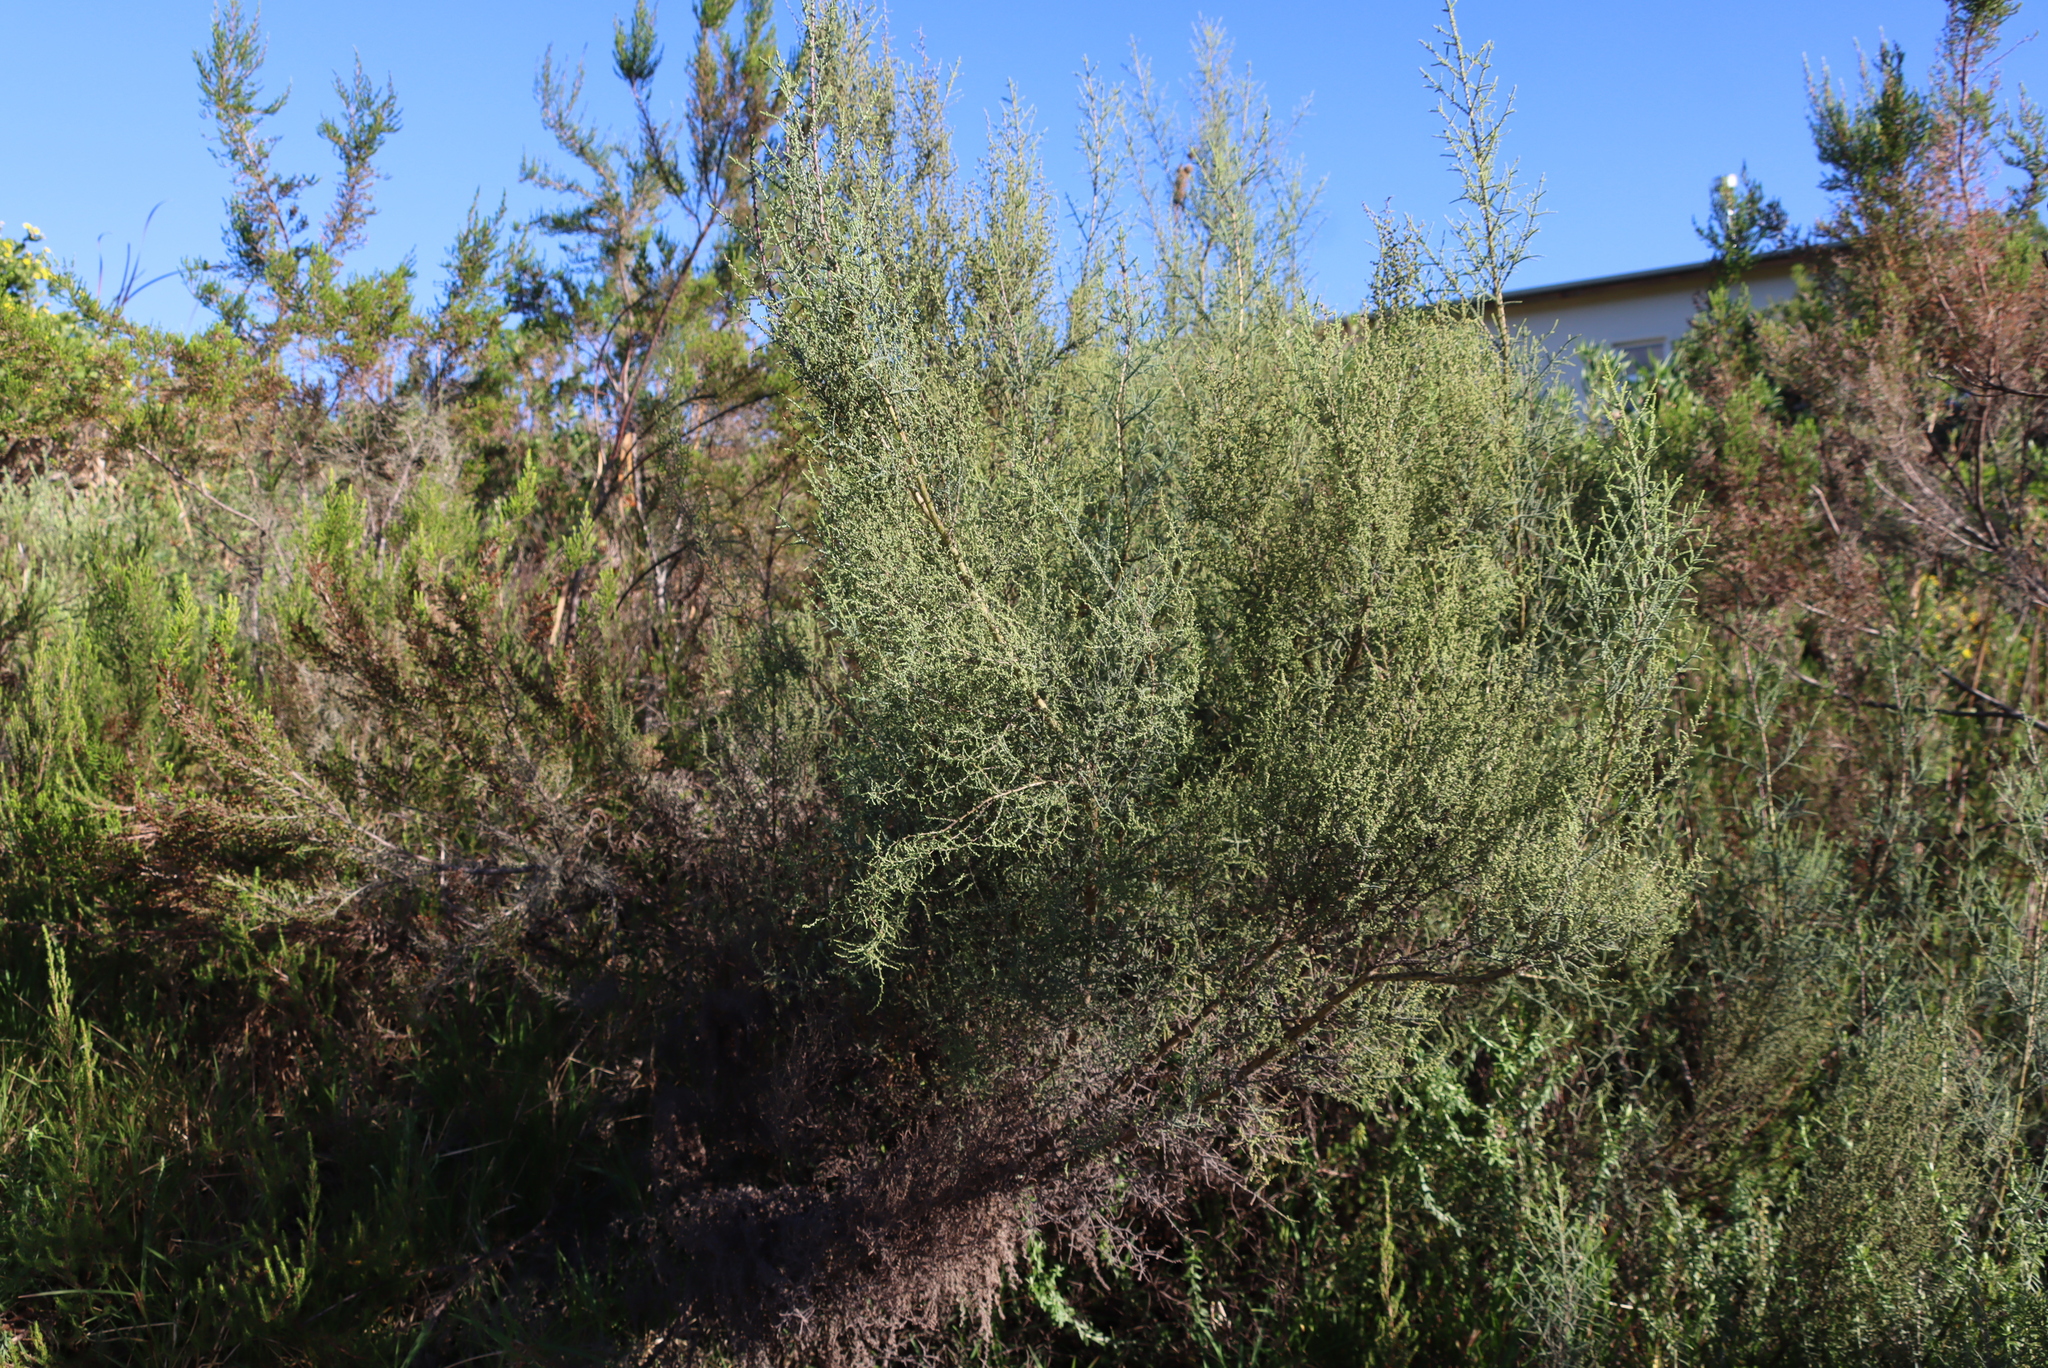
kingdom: Plantae
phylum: Tracheophyta
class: Magnoliopsida
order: Asterales
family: Asteraceae
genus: Seriphium
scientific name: Seriphium plumosum
